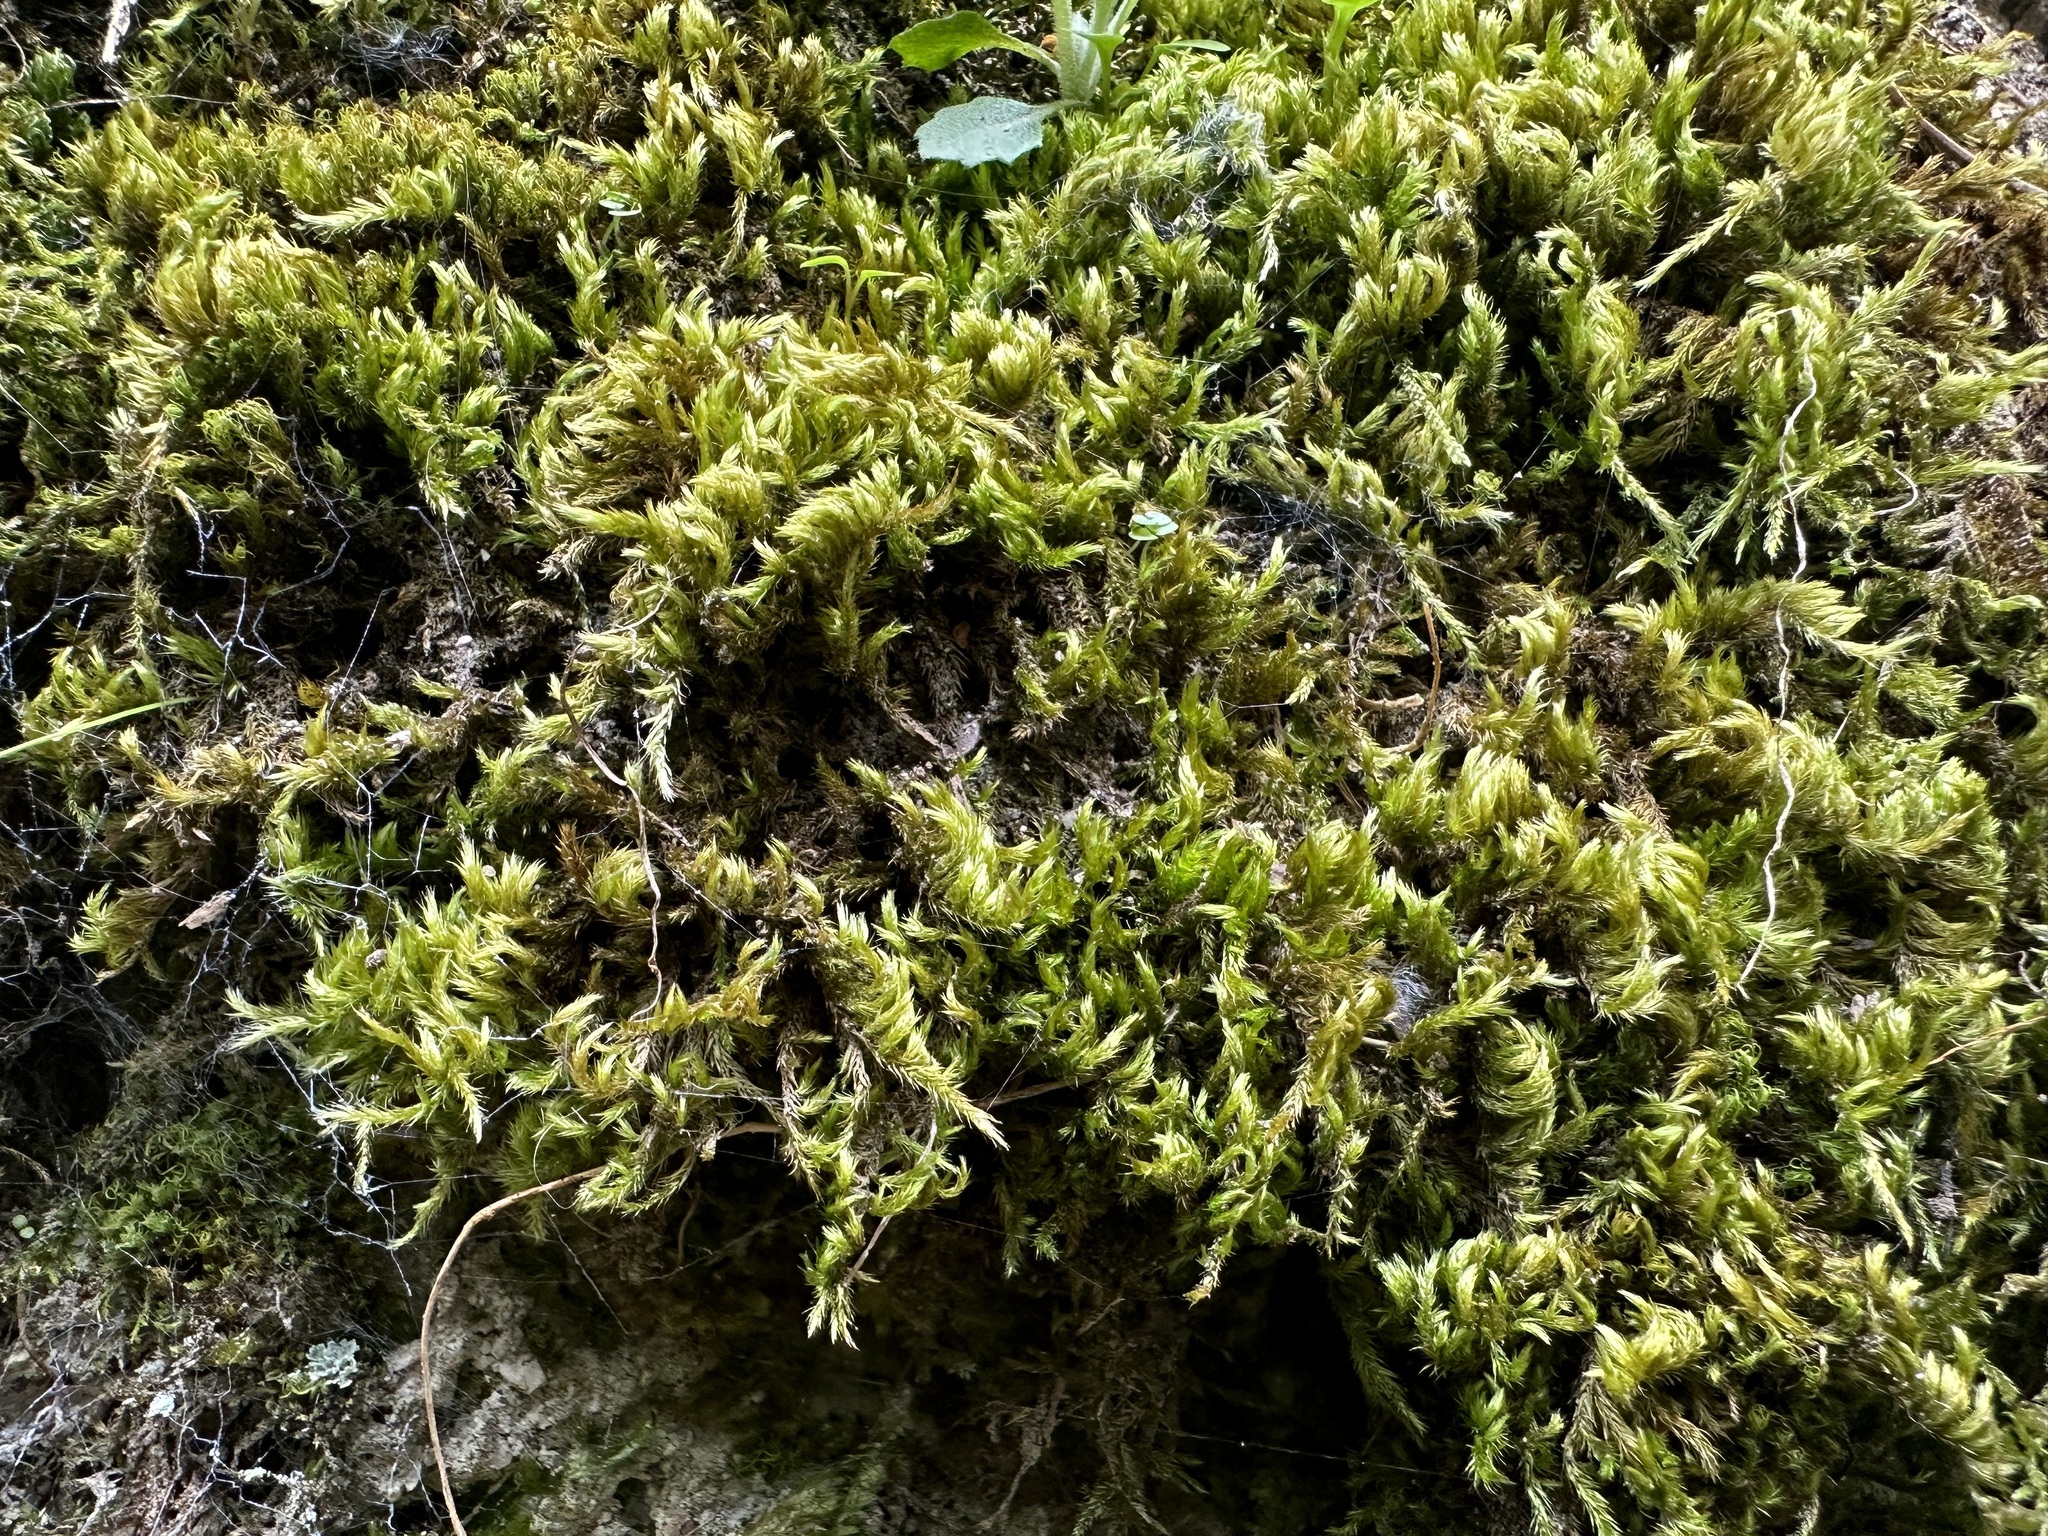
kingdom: Plantae
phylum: Bryophyta
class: Bryopsida
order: Hypnales
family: Brachytheciaceae
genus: Homalothecium
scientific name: Homalothecium sericeum
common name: Silky wall feather-moss
